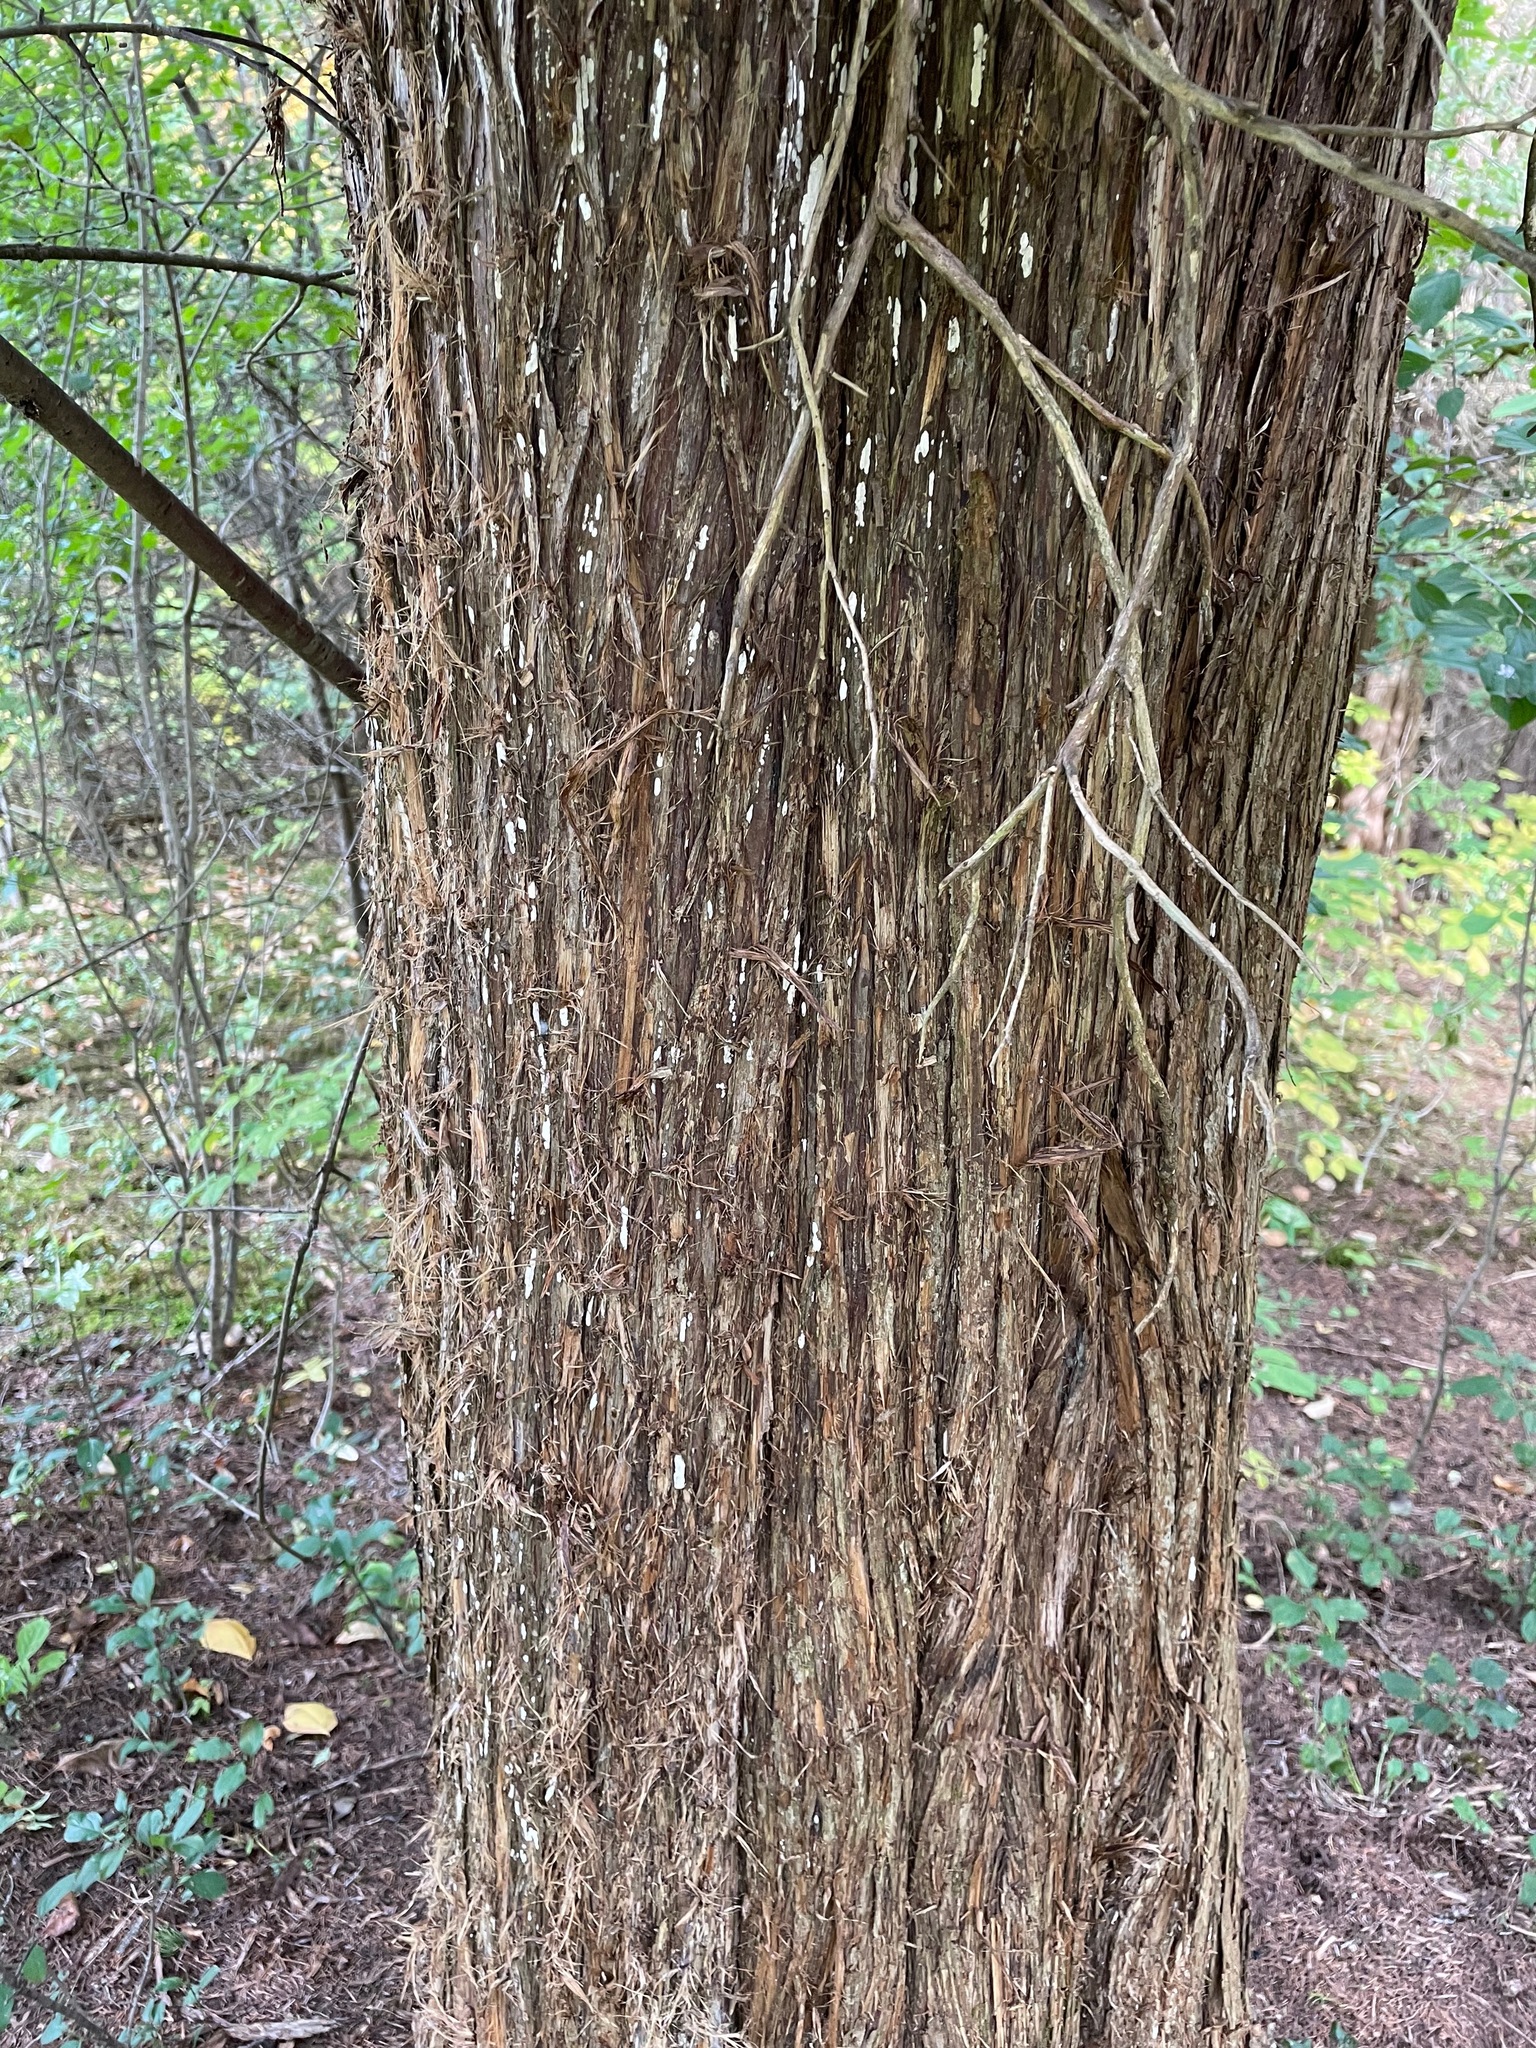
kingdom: Plantae
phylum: Tracheophyta
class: Pinopsida
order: Pinales
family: Cupressaceae
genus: Juniperus
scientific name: Juniperus virginiana
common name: Red juniper
